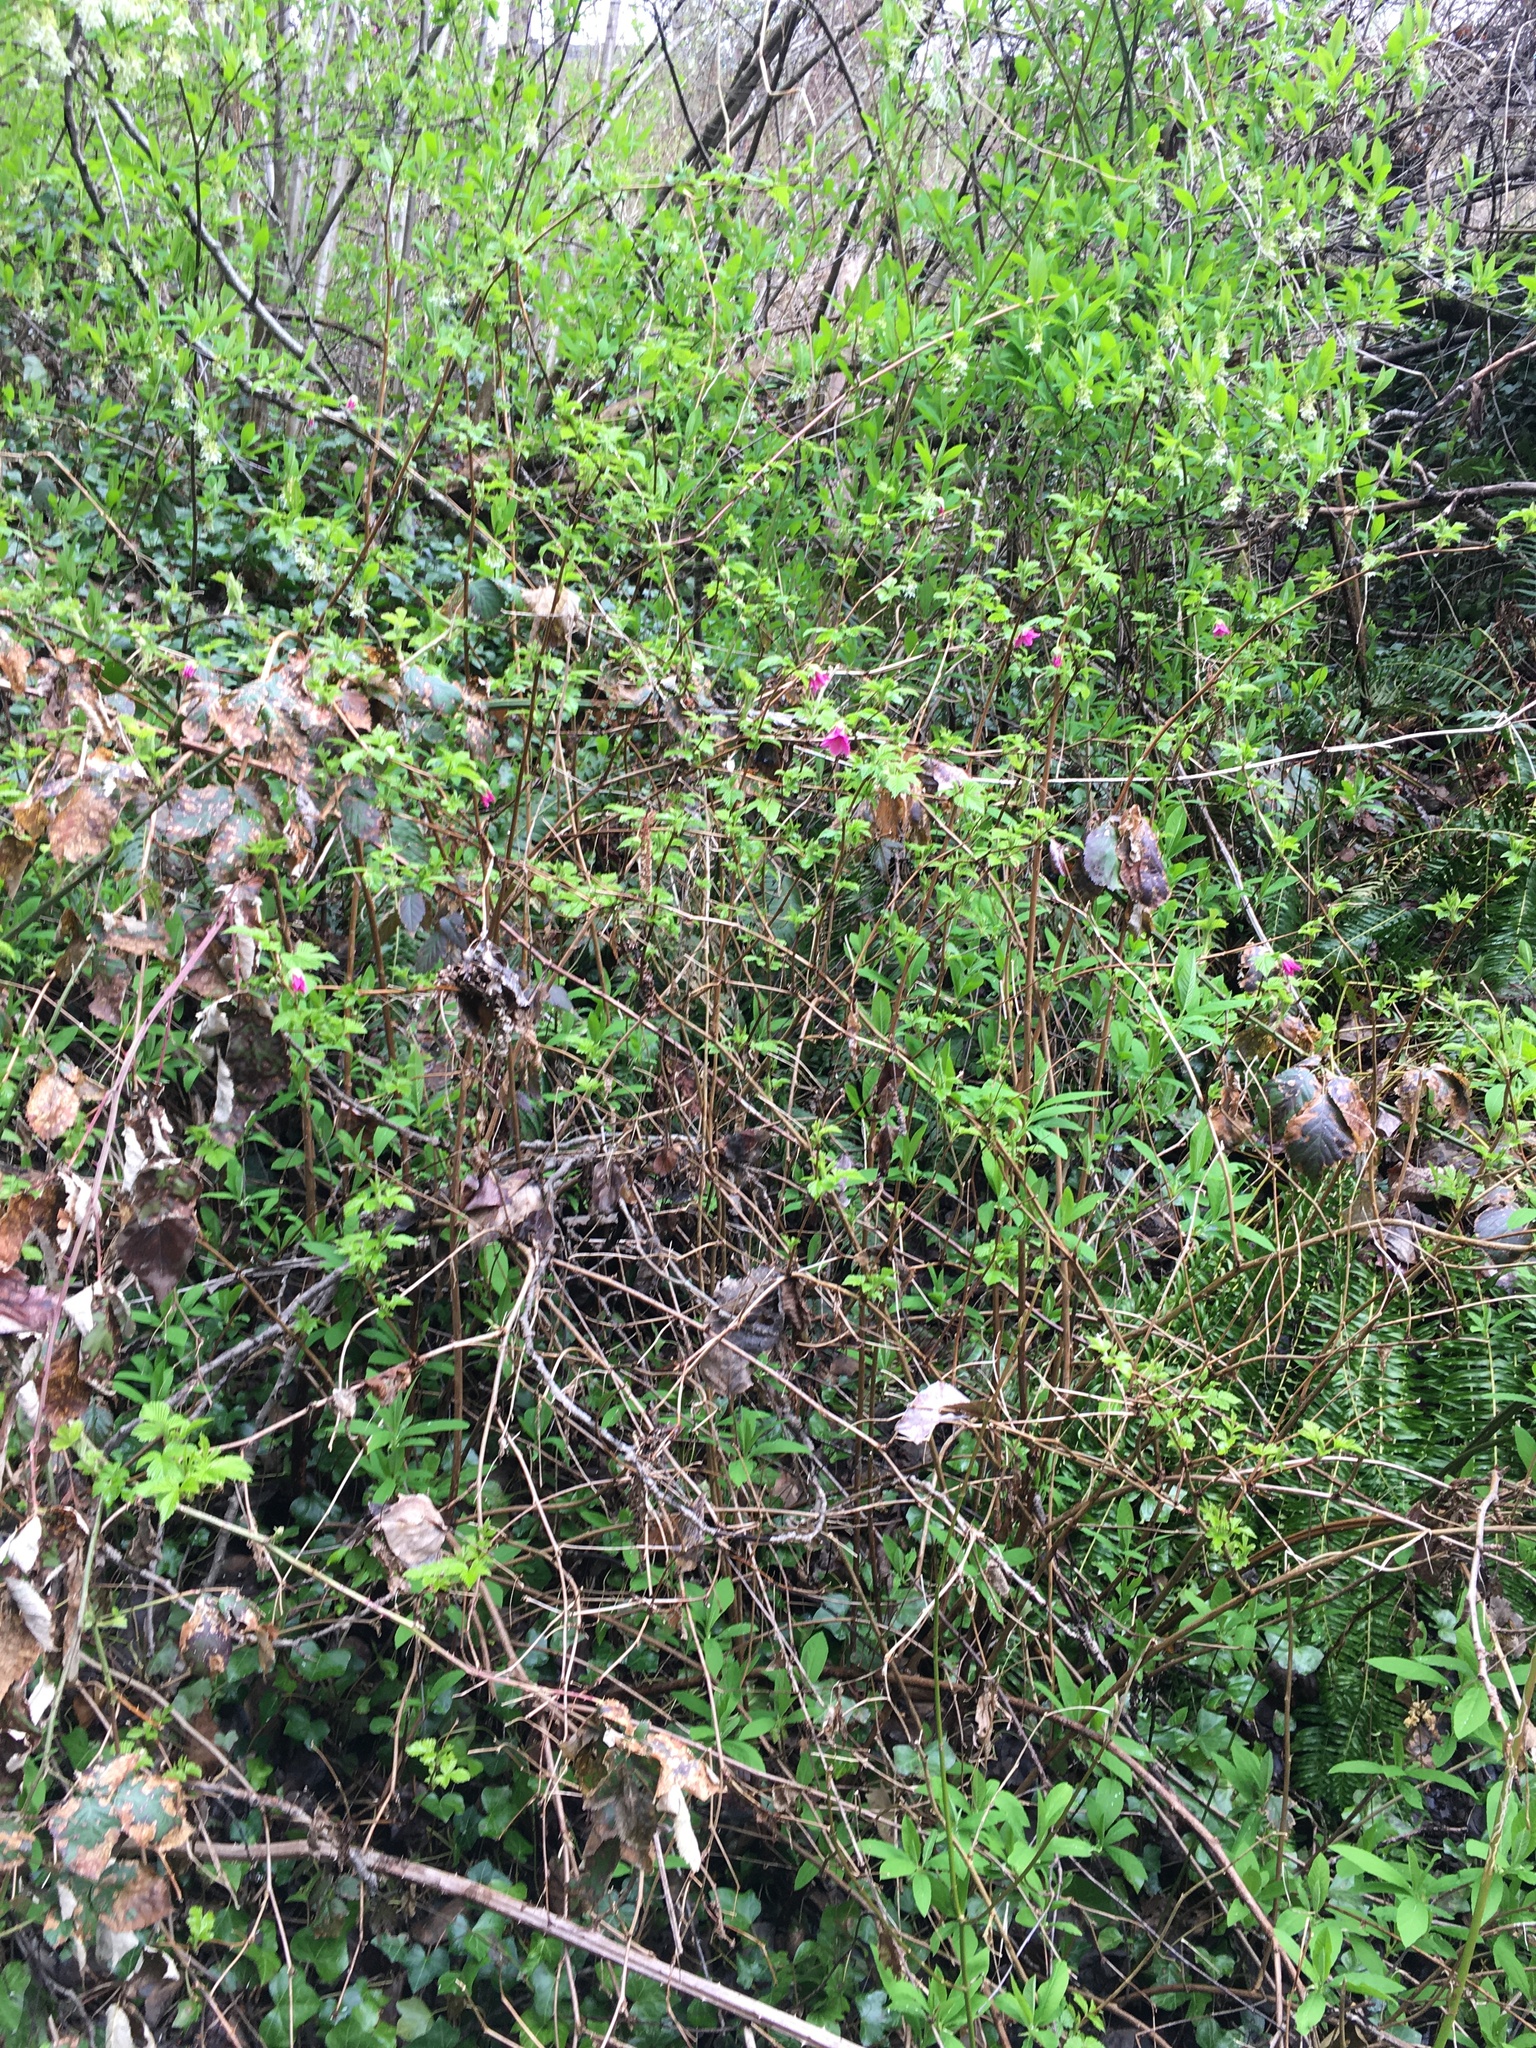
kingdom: Plantae
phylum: Tracheophyta
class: Magnoliopsida
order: Rosales
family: Rosaceae
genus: Rubus
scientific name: Rubus spectabilis
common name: Salmonberry
